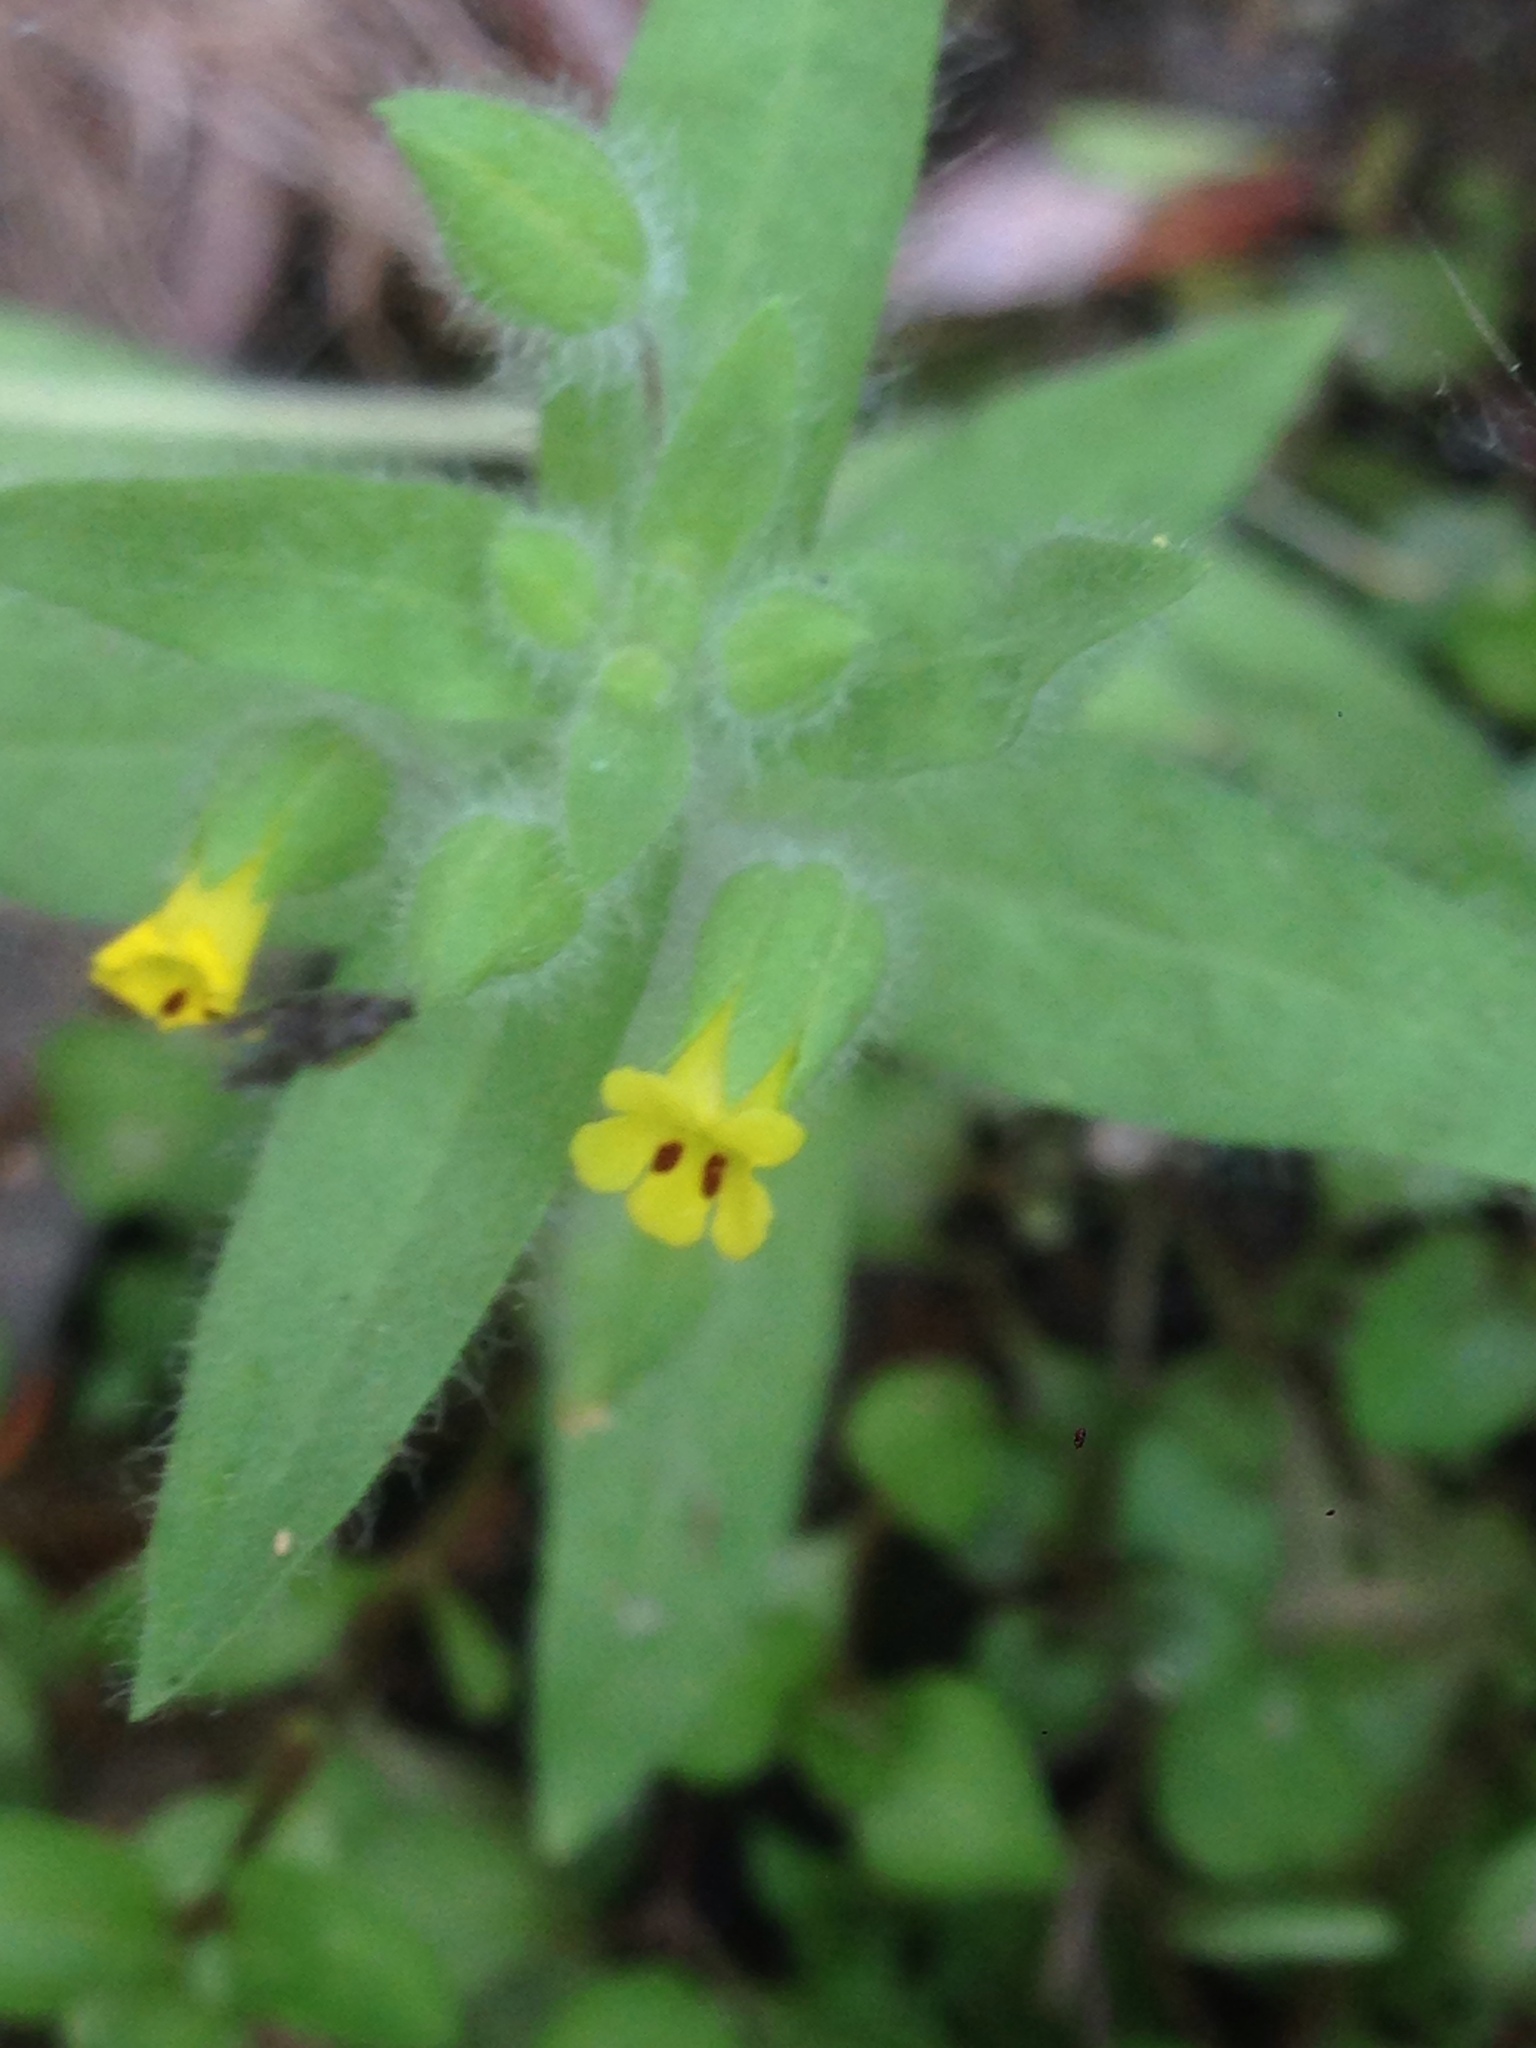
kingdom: Plantae
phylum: Tracheophyta
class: Magnoliopsida
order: Lamiales
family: Phrymaceae
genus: Mimetanthe
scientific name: Mimetanthe pilosa
